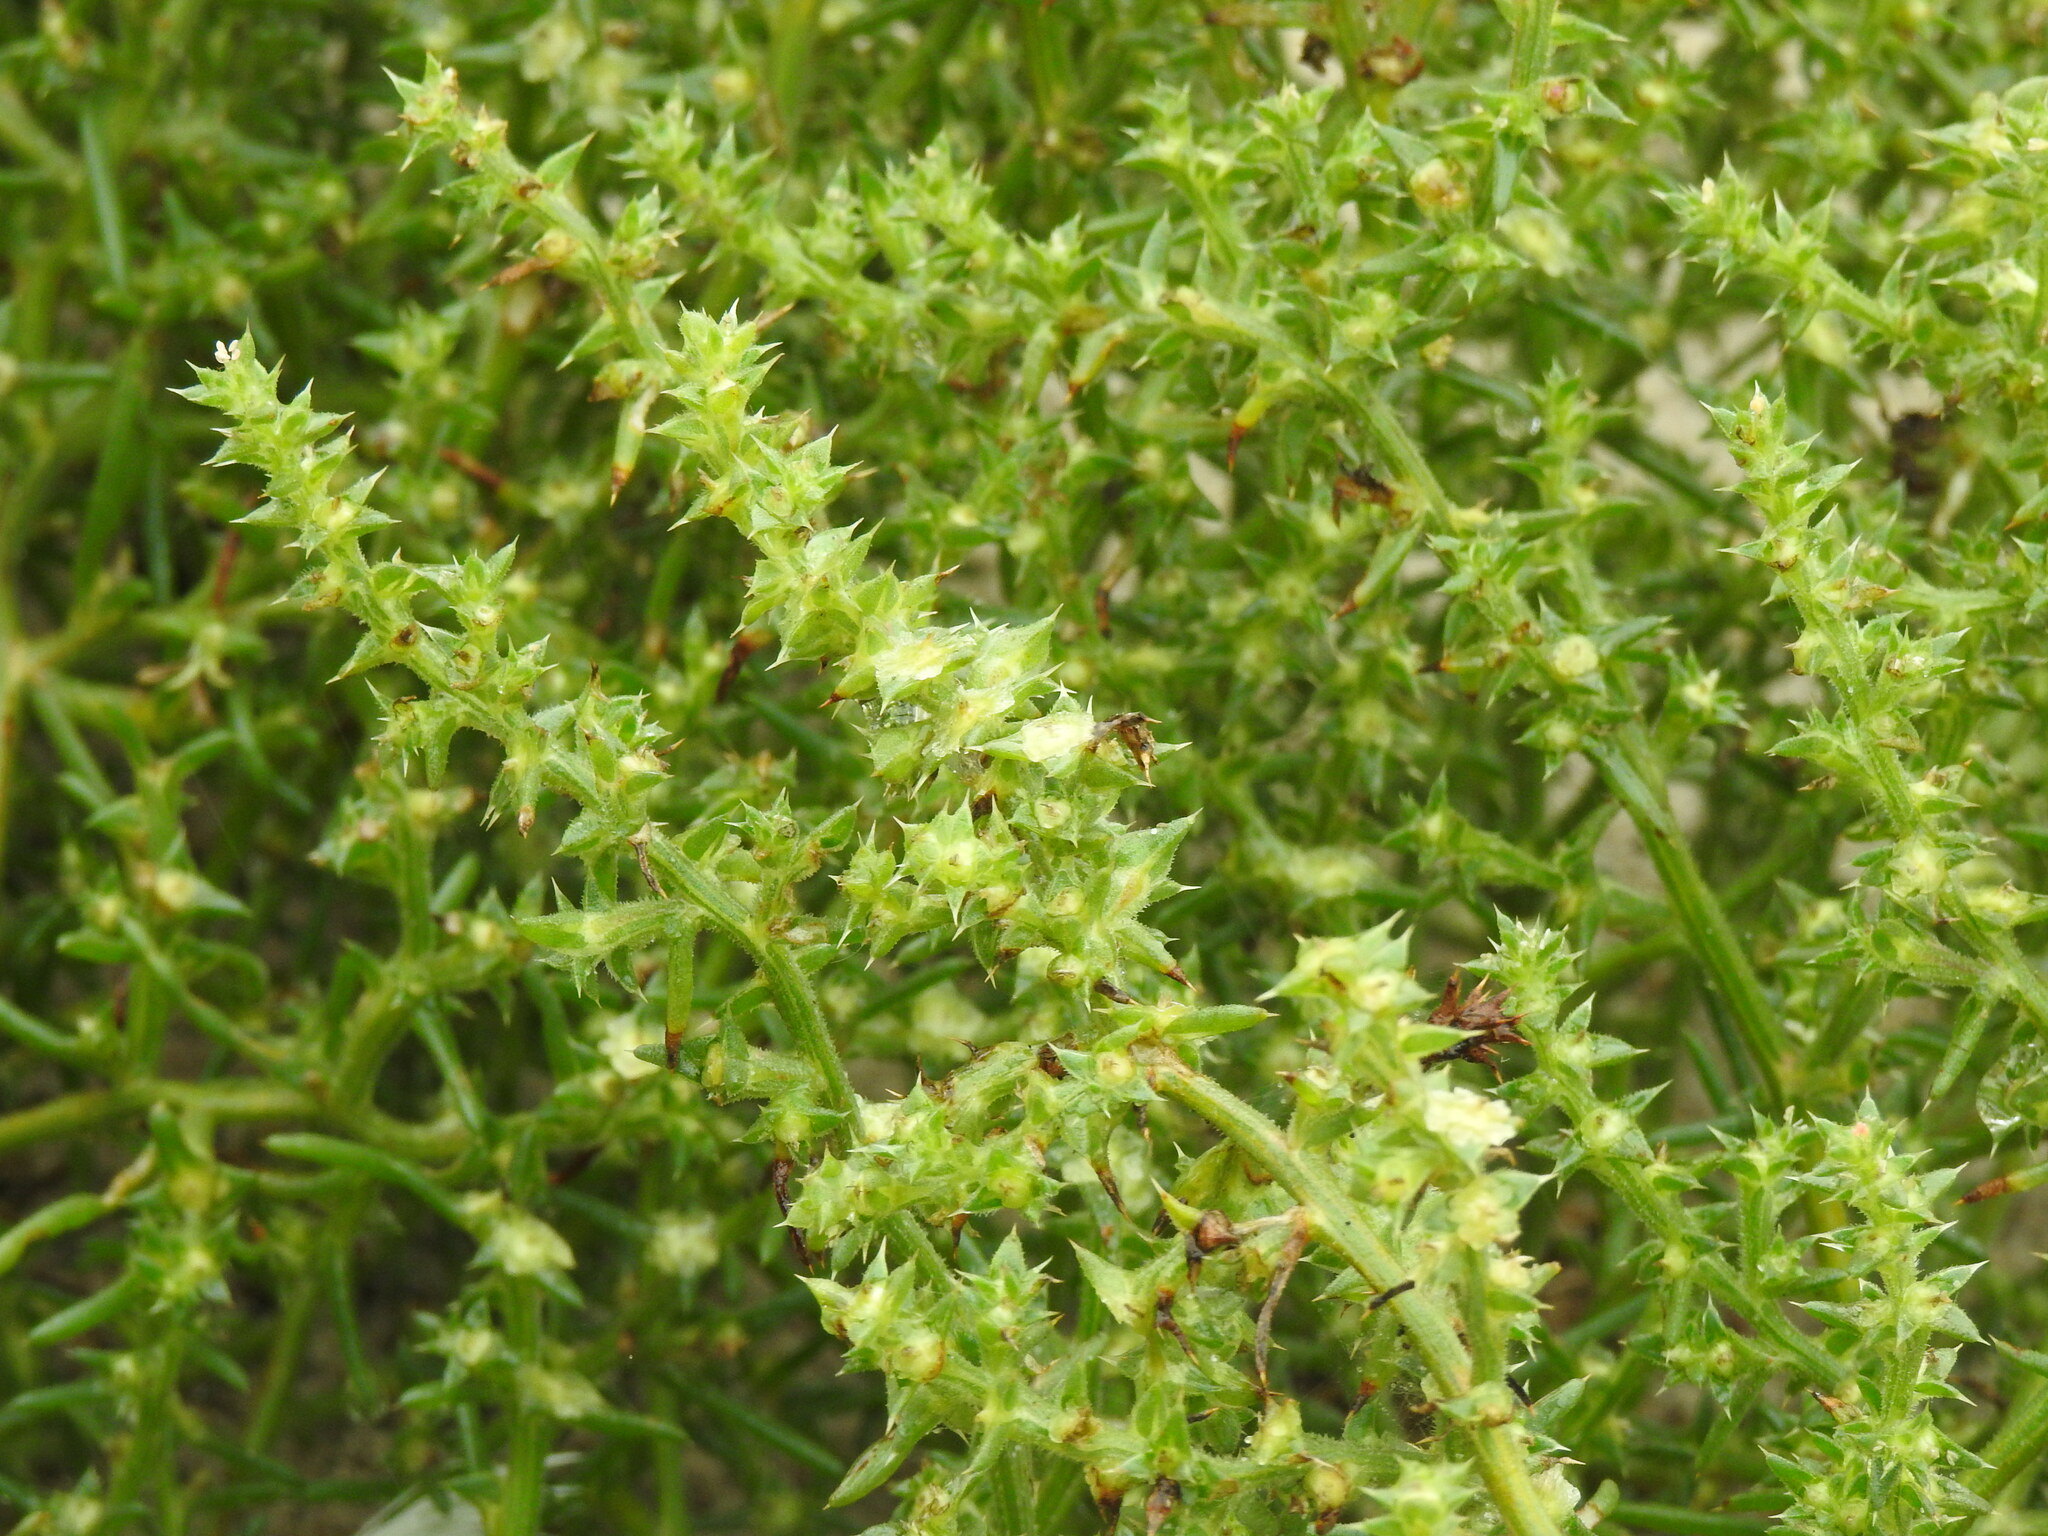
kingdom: Plantae
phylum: Tracheophyta
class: Magnoliopsida
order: Caryophyllales
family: Amaranthaceae
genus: Salsola
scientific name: Salsola kali
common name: Saltwort
